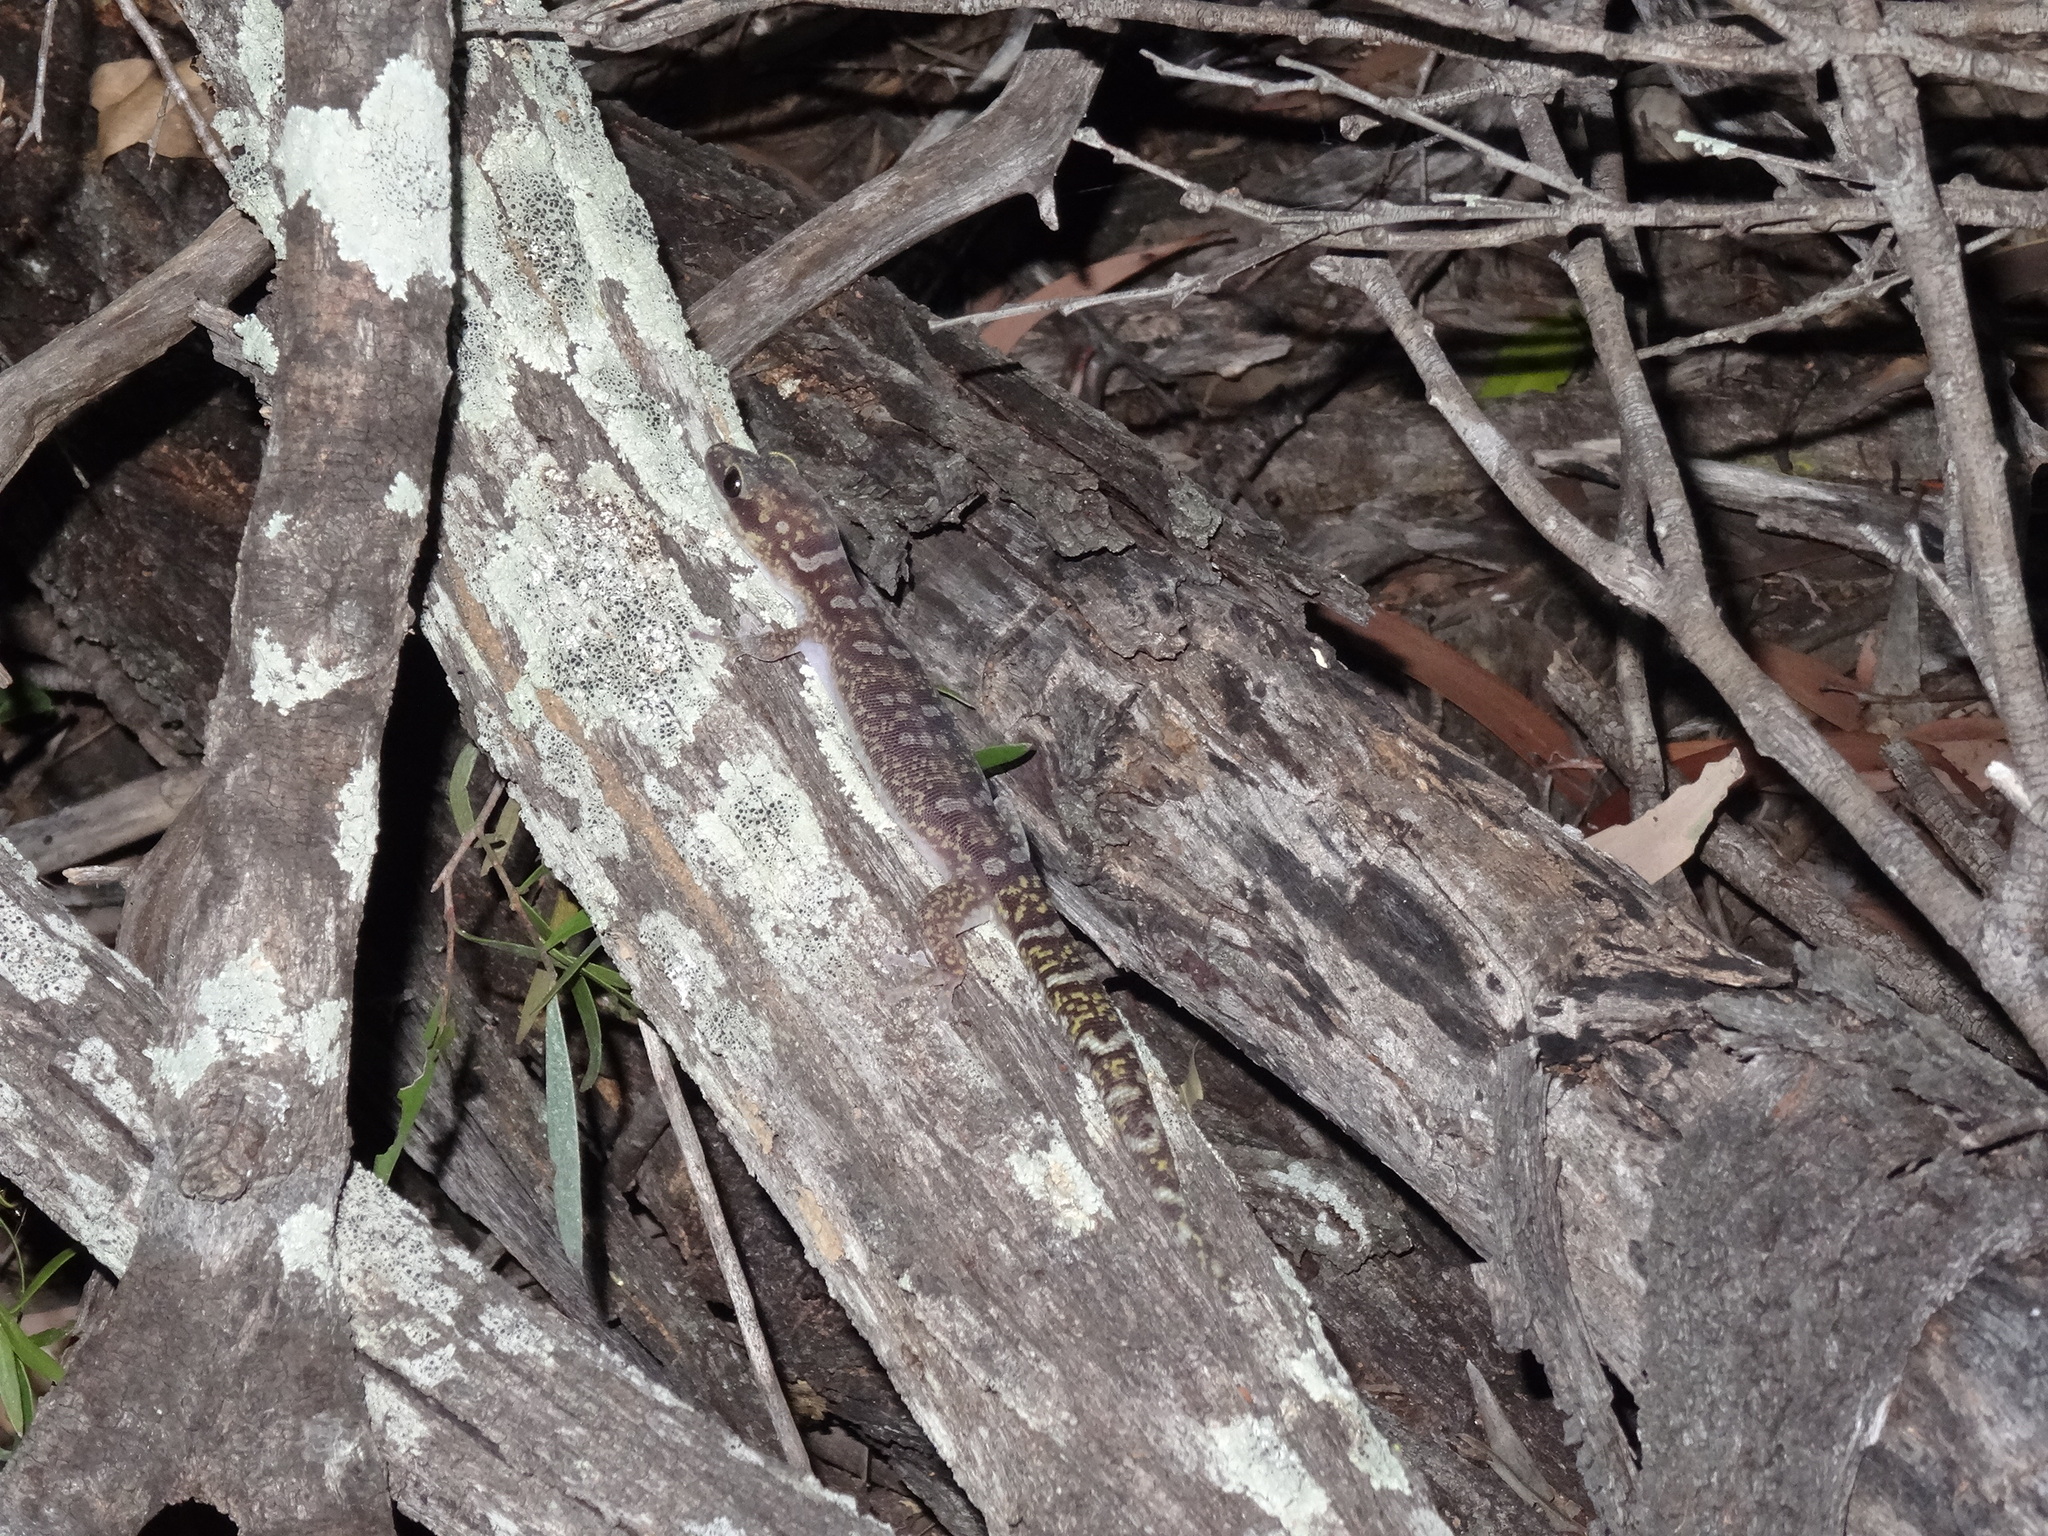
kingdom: Animalia
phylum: Chordata
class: Squamata
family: Diplodactylidae
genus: Oedura
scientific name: Oedura monilis
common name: Blotched gecko
